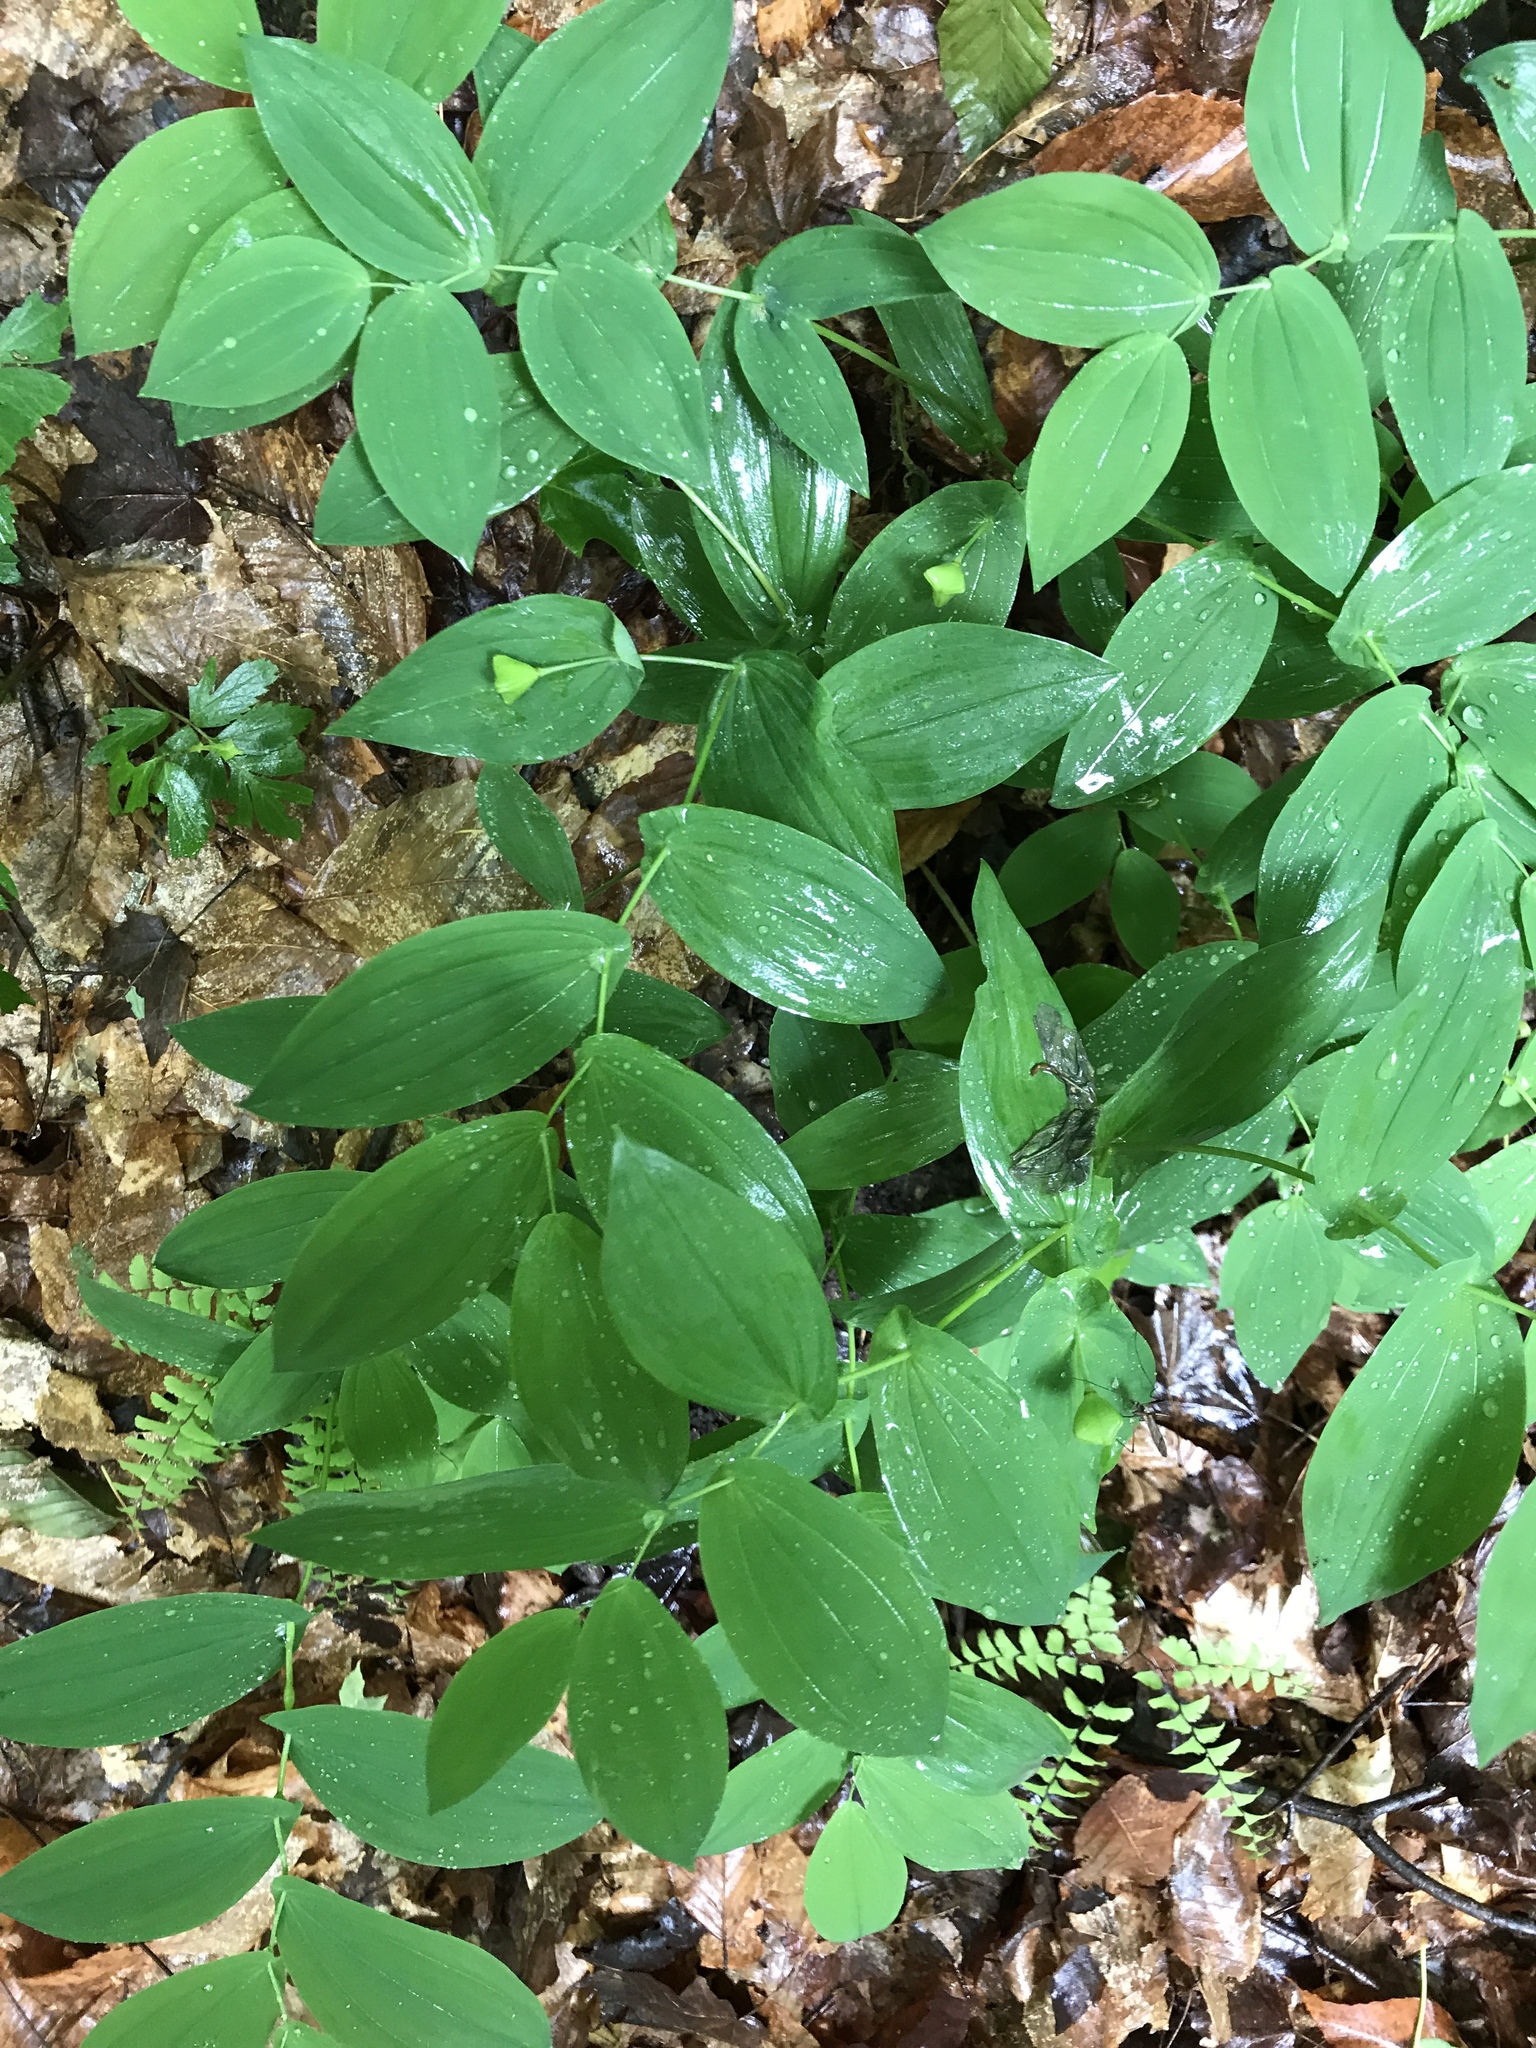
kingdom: Plantae
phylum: Tracheophyta
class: Liliopsida
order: Liliales
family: Colchicaceae
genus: Uvularia
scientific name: Uvularia grandiflora
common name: Bellwort
